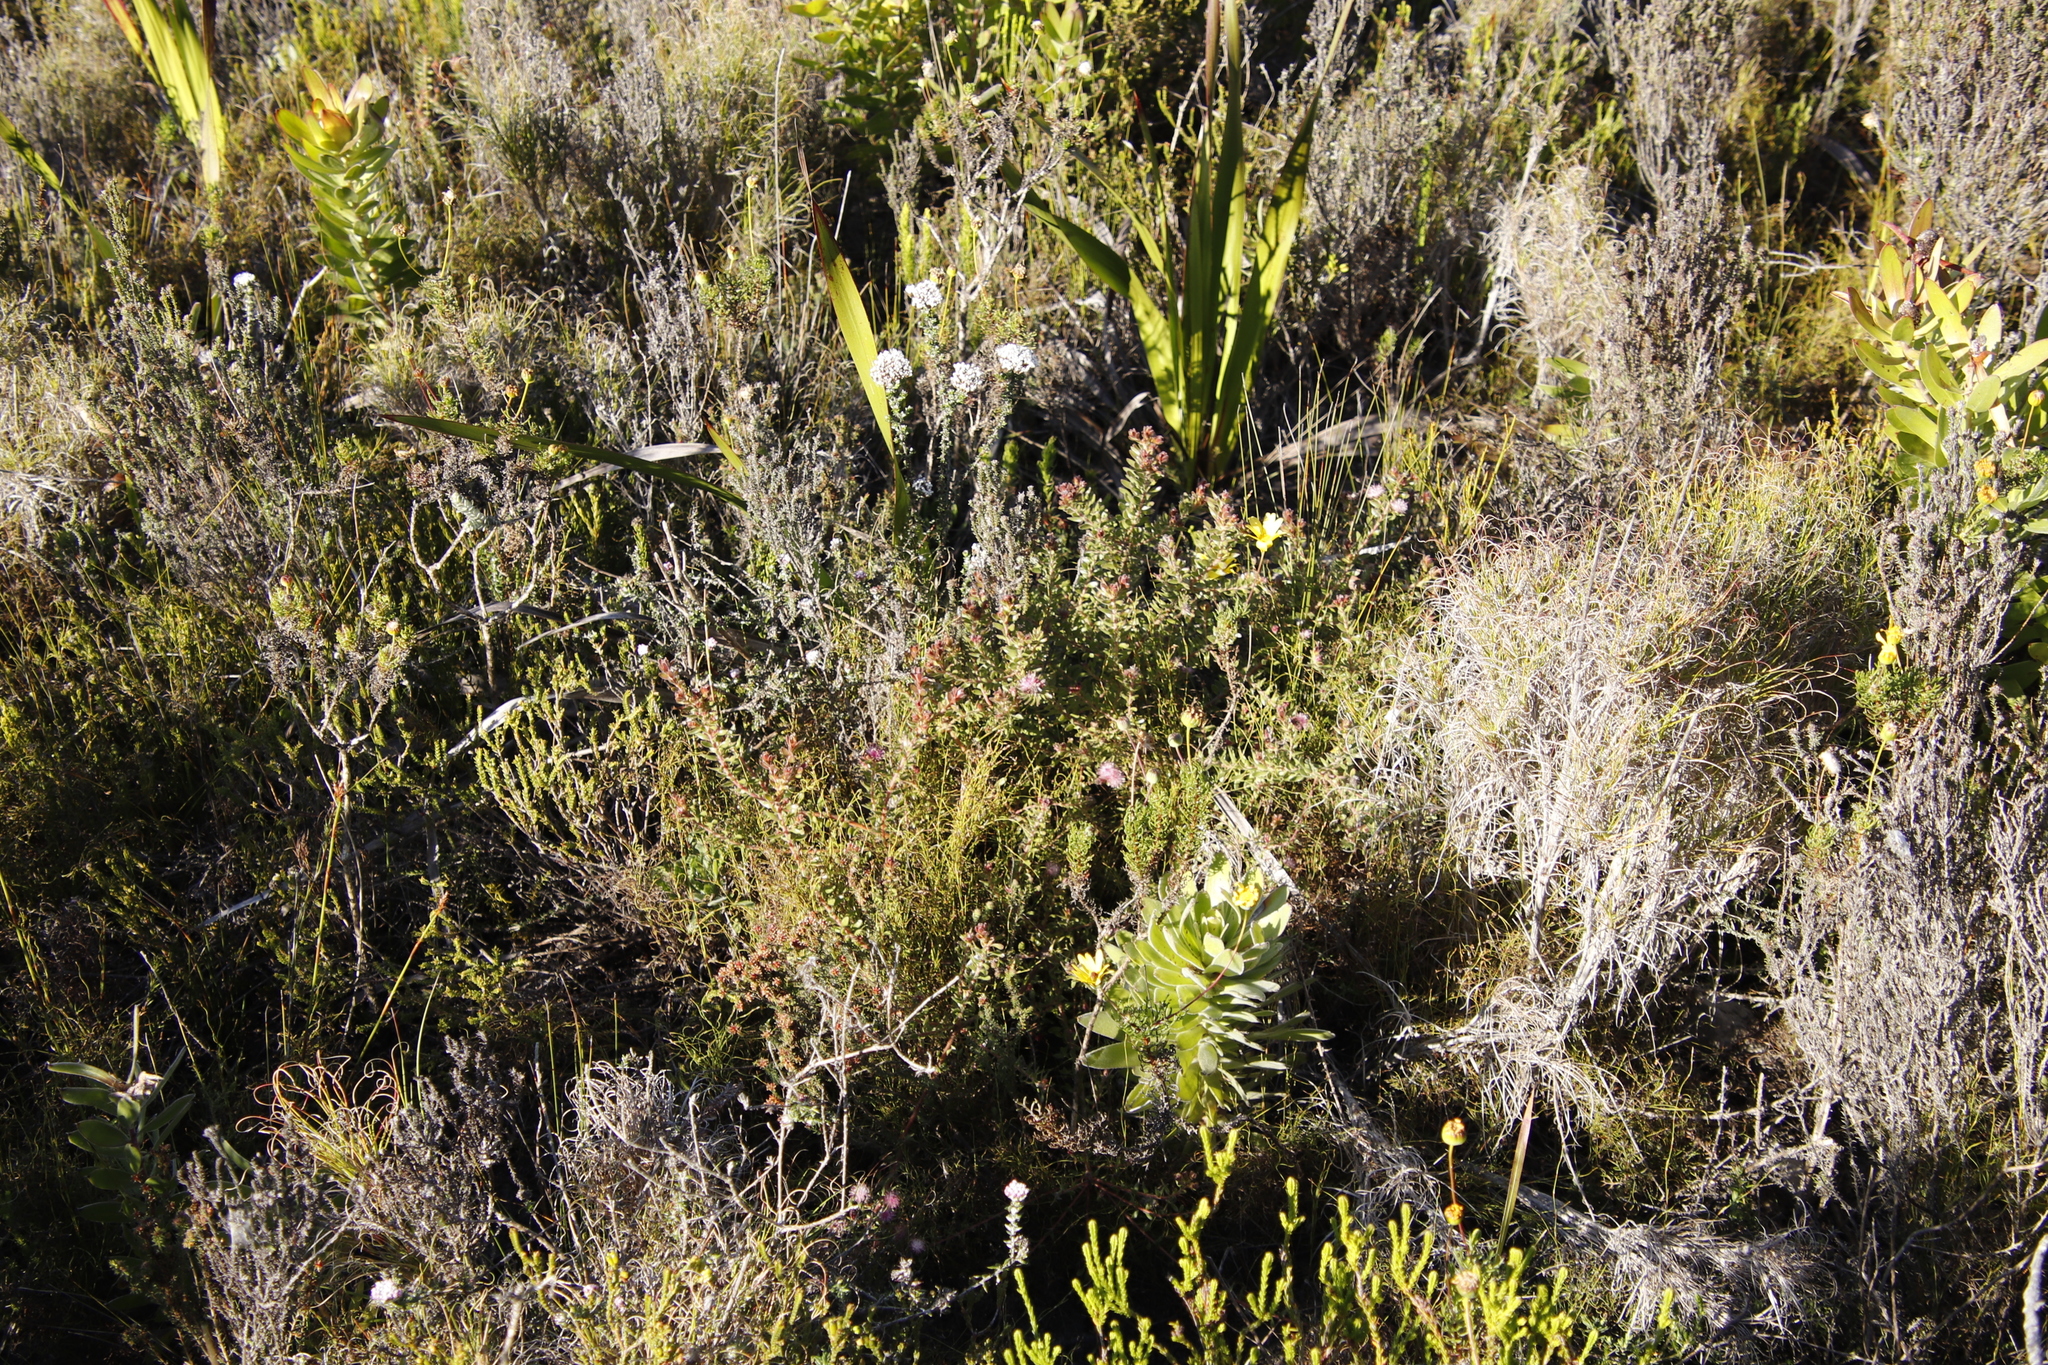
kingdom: Plantae
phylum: Tracheophyta
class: Magnoliopsida
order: Proteales
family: Proteaceae
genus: Diastella
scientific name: Diastella divaricata
